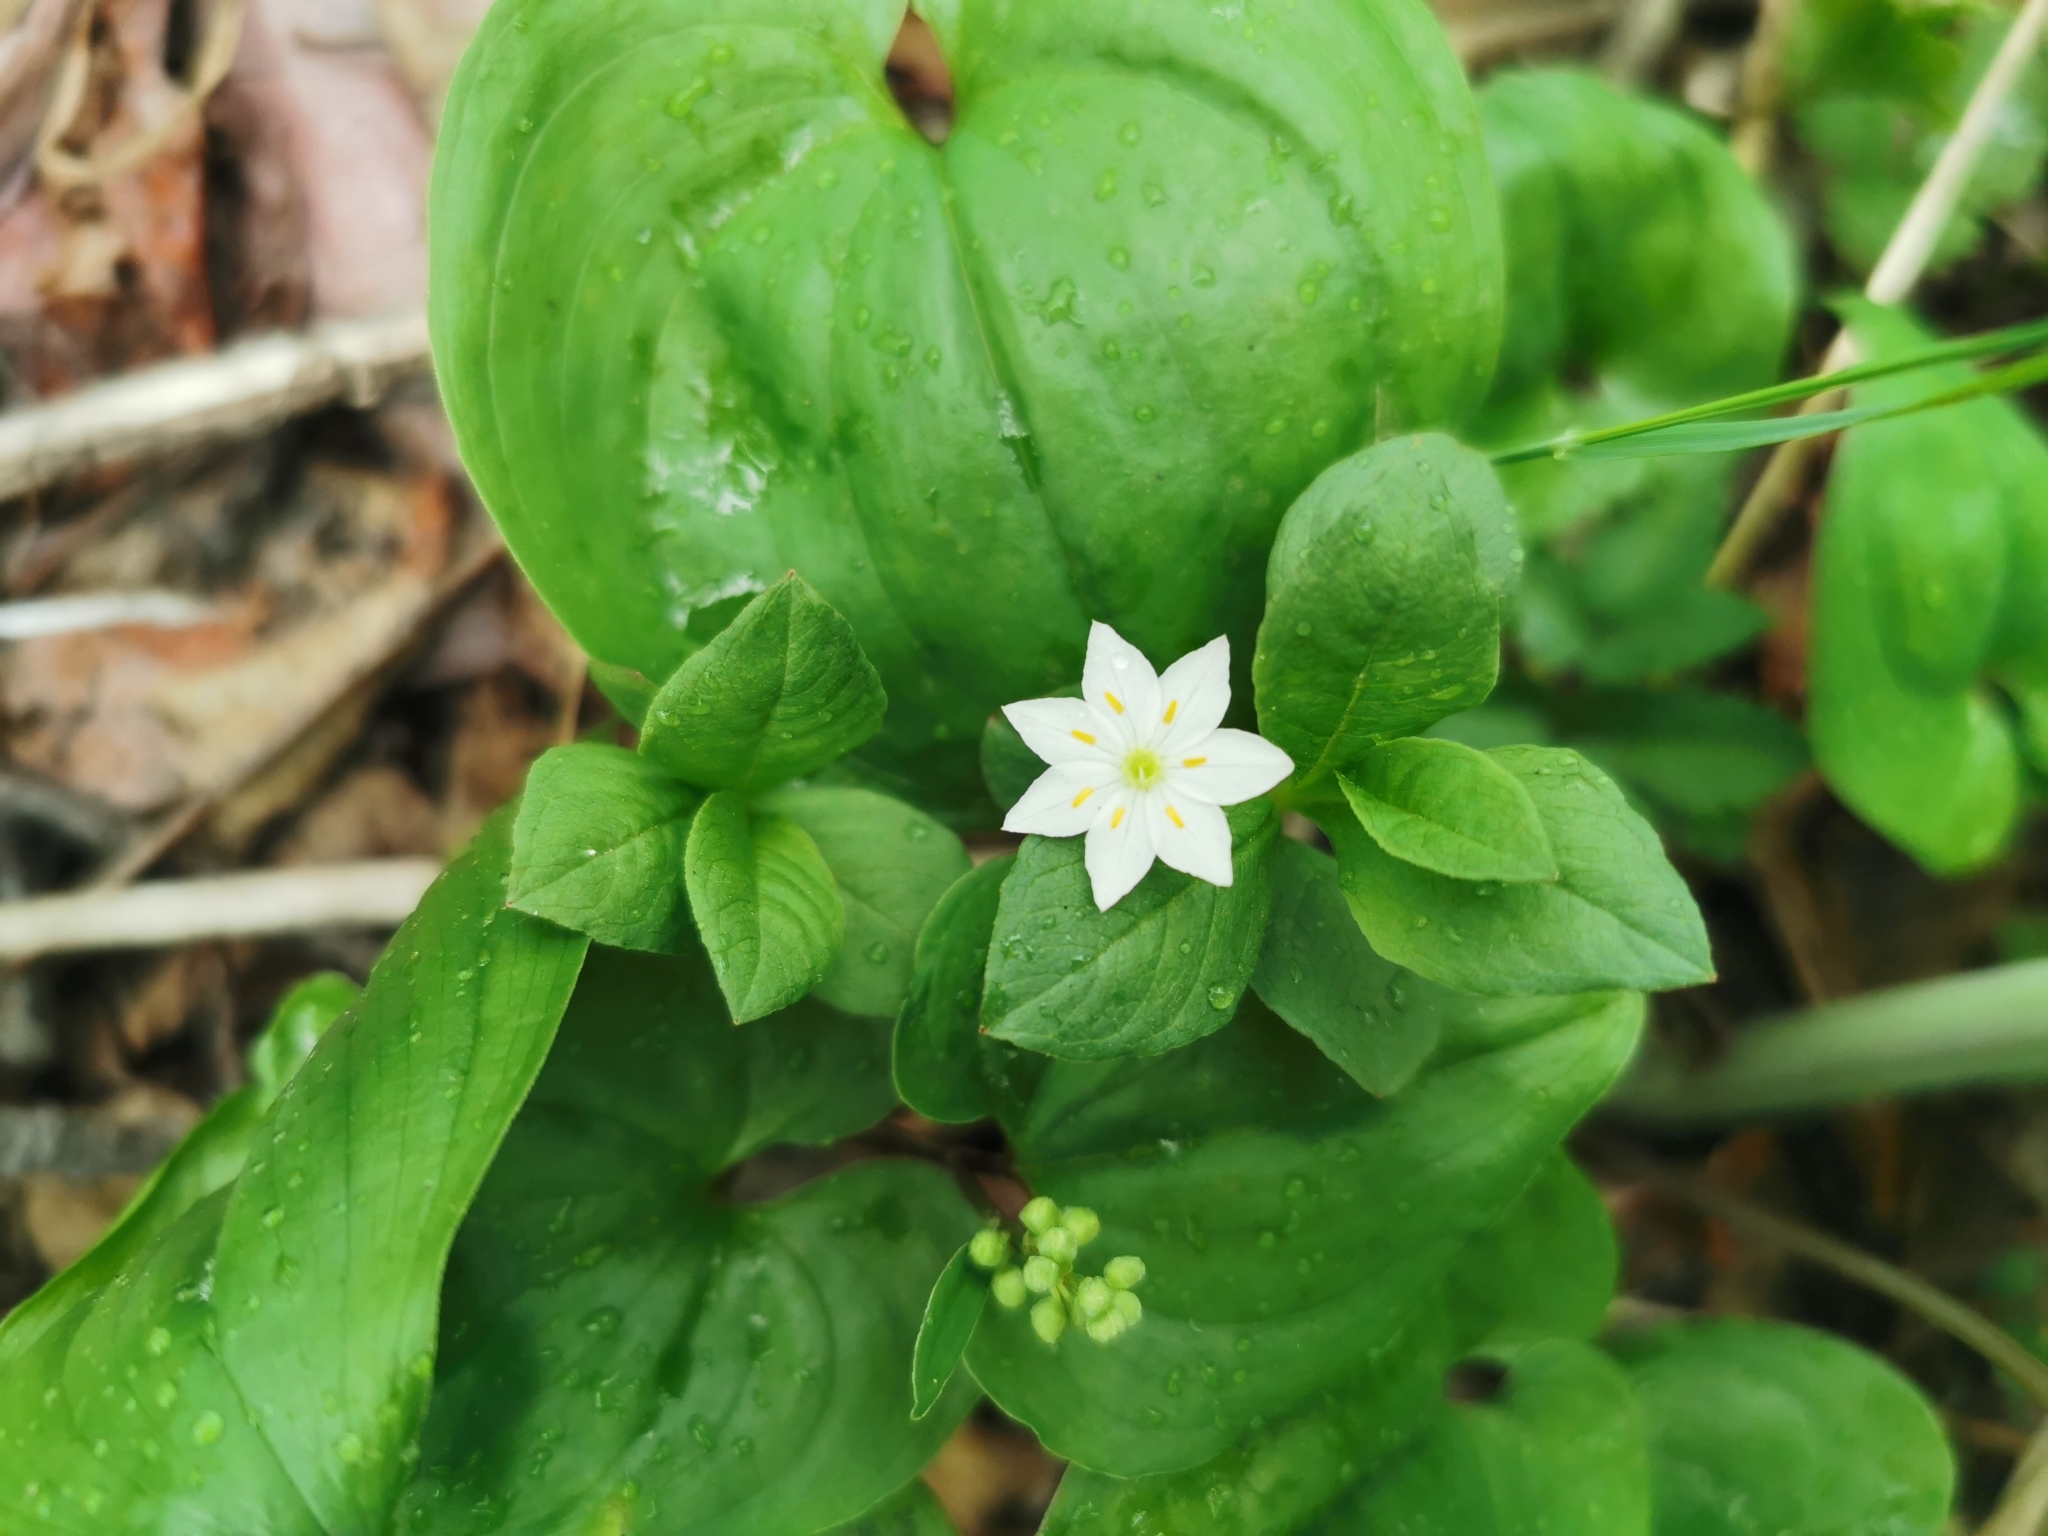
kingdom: Plantae
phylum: Tracheophyta
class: Magnoliopsida
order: Ericales
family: Primulaceae
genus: Lysimachia
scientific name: Lysimachia europaea
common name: Arctic starflower
